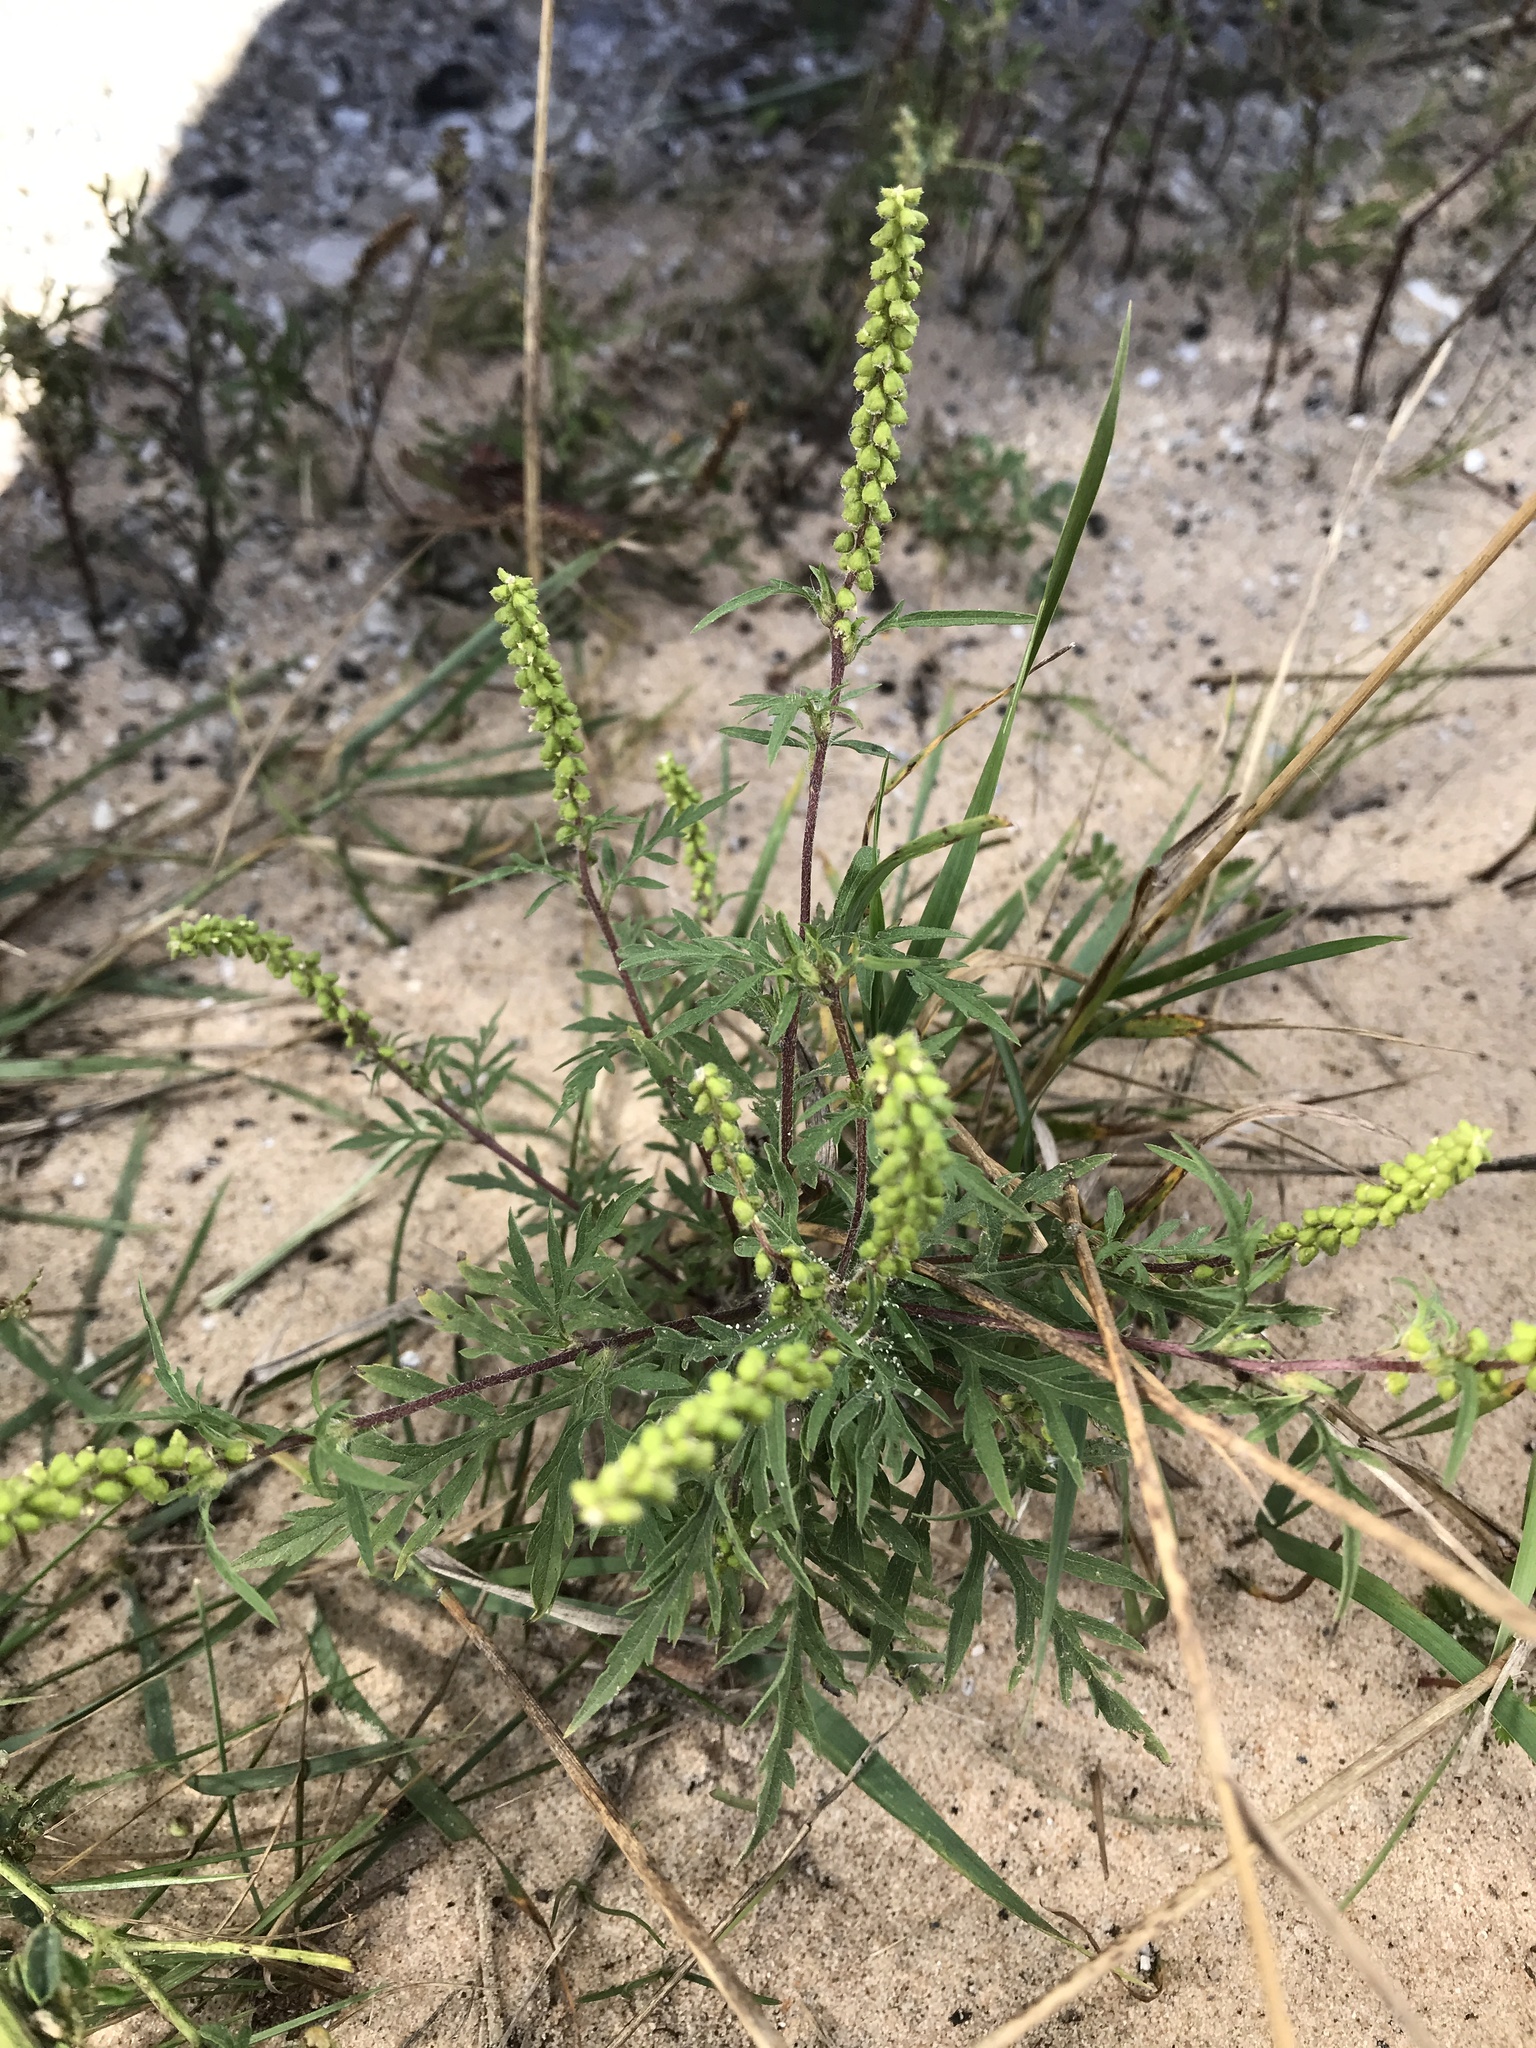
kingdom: Plantae
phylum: Tracheophyta
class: Magnoliopsida
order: Asterales
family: Asteraceae
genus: Ambrosia
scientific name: Ambrosia artemisiifolia
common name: Annual ragweed
